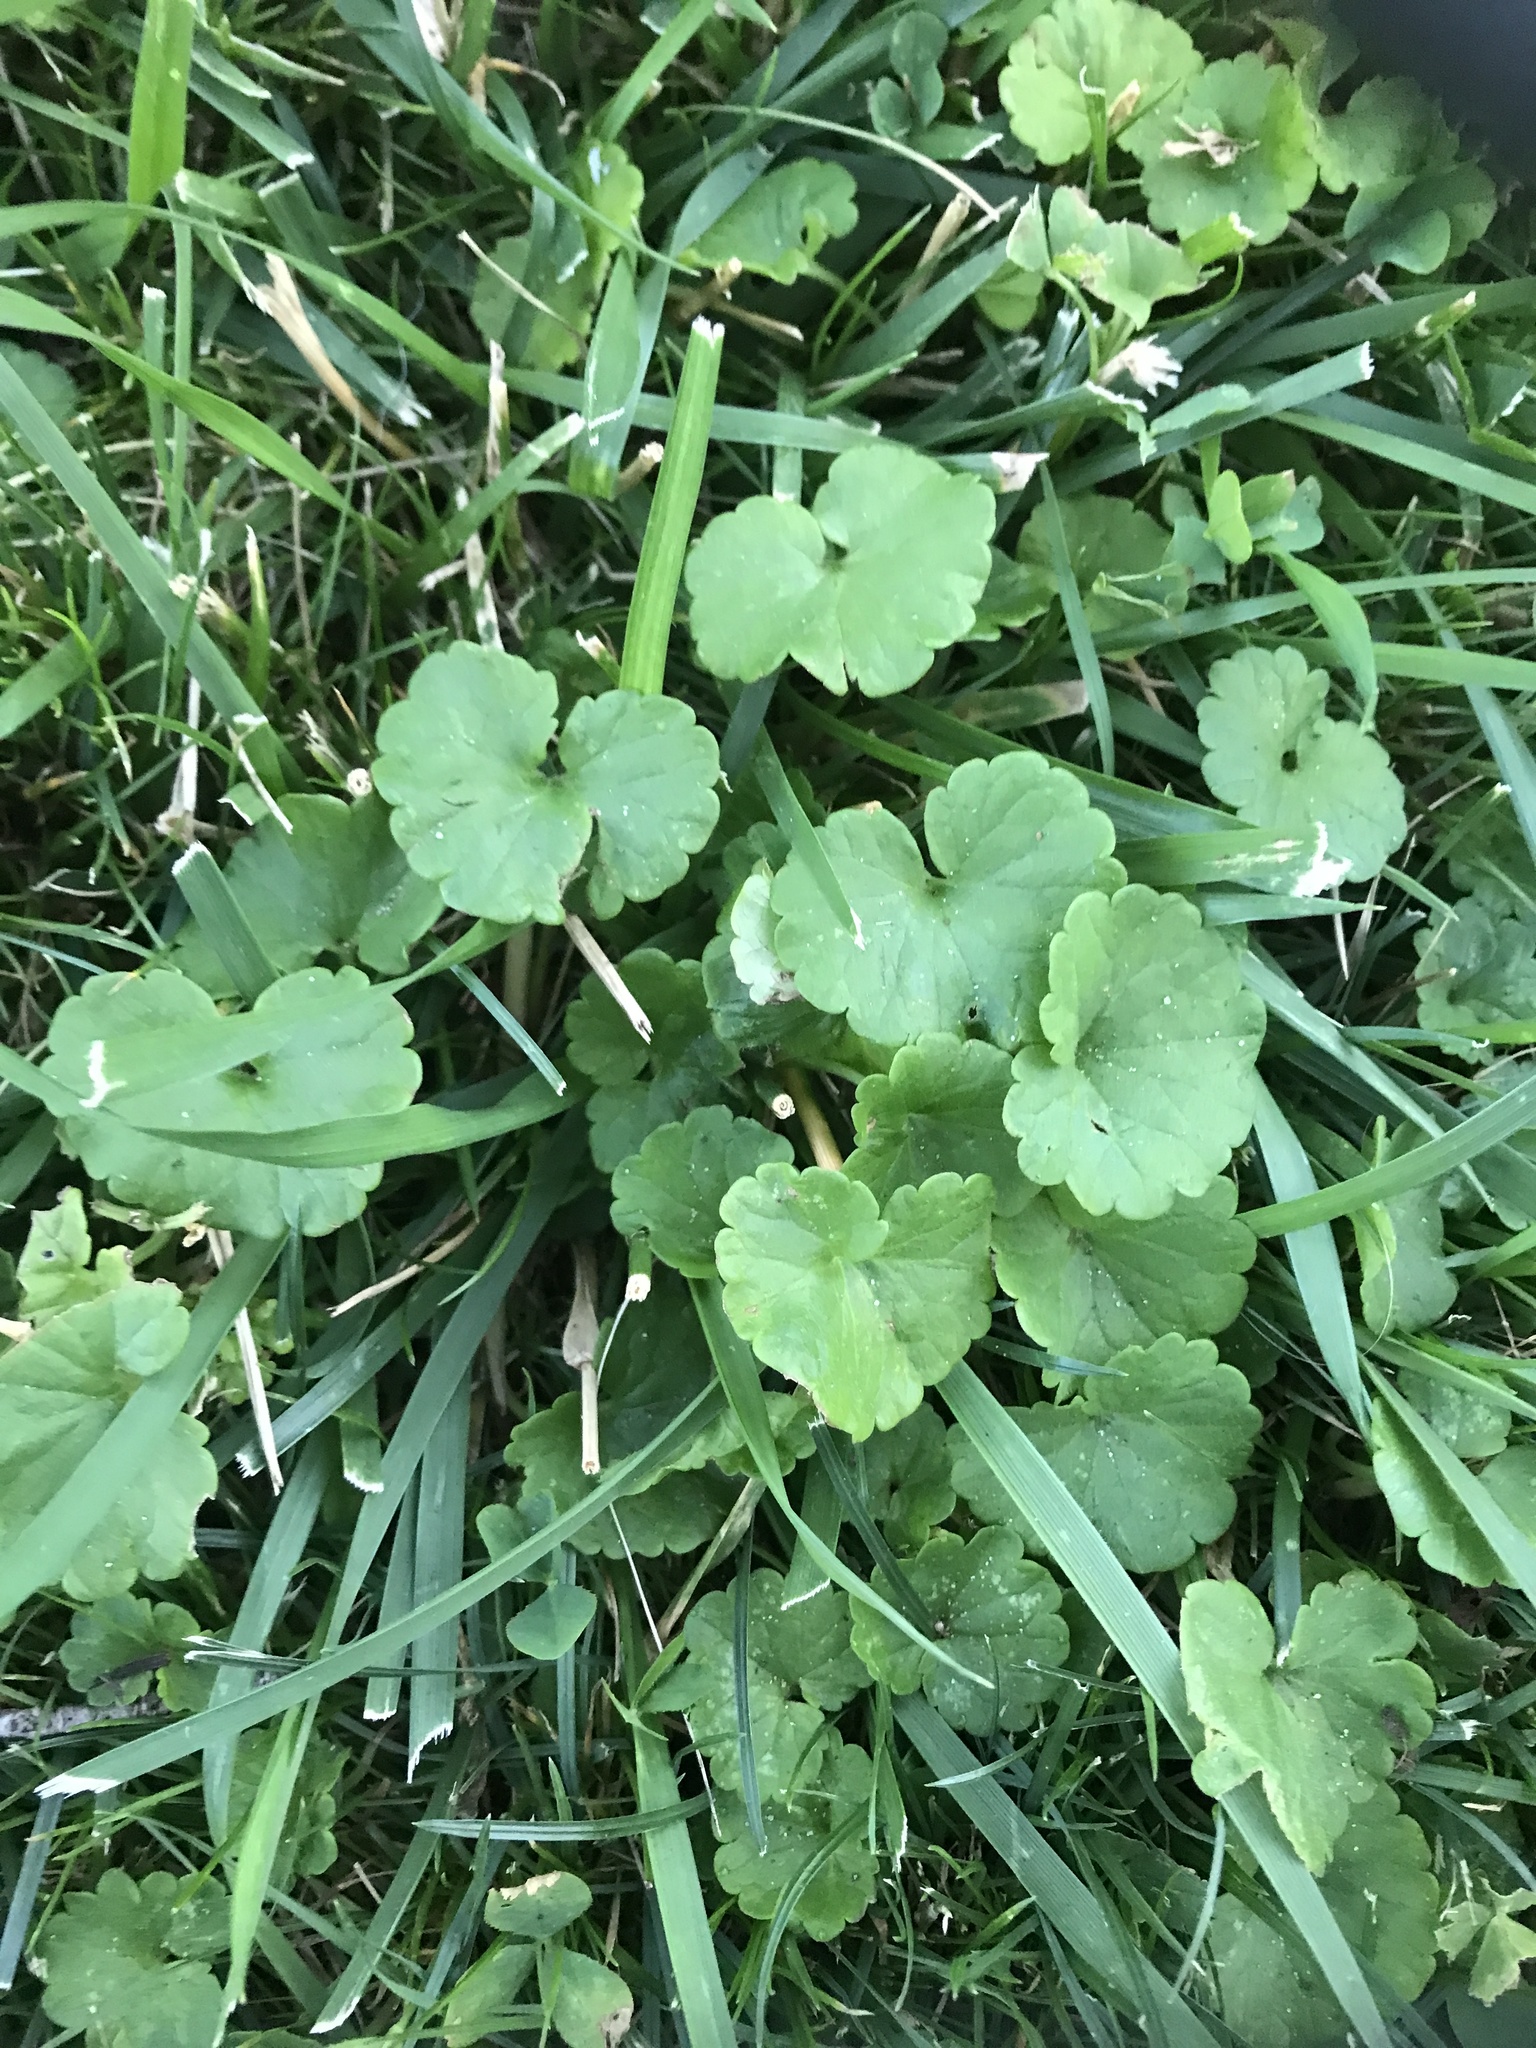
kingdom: Plantae
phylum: Tracheophyta
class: Magnoliopsida
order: Lamiales
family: Lamiaceae
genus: Glechoma
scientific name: Glechoma hederacea
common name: Ground ivy
